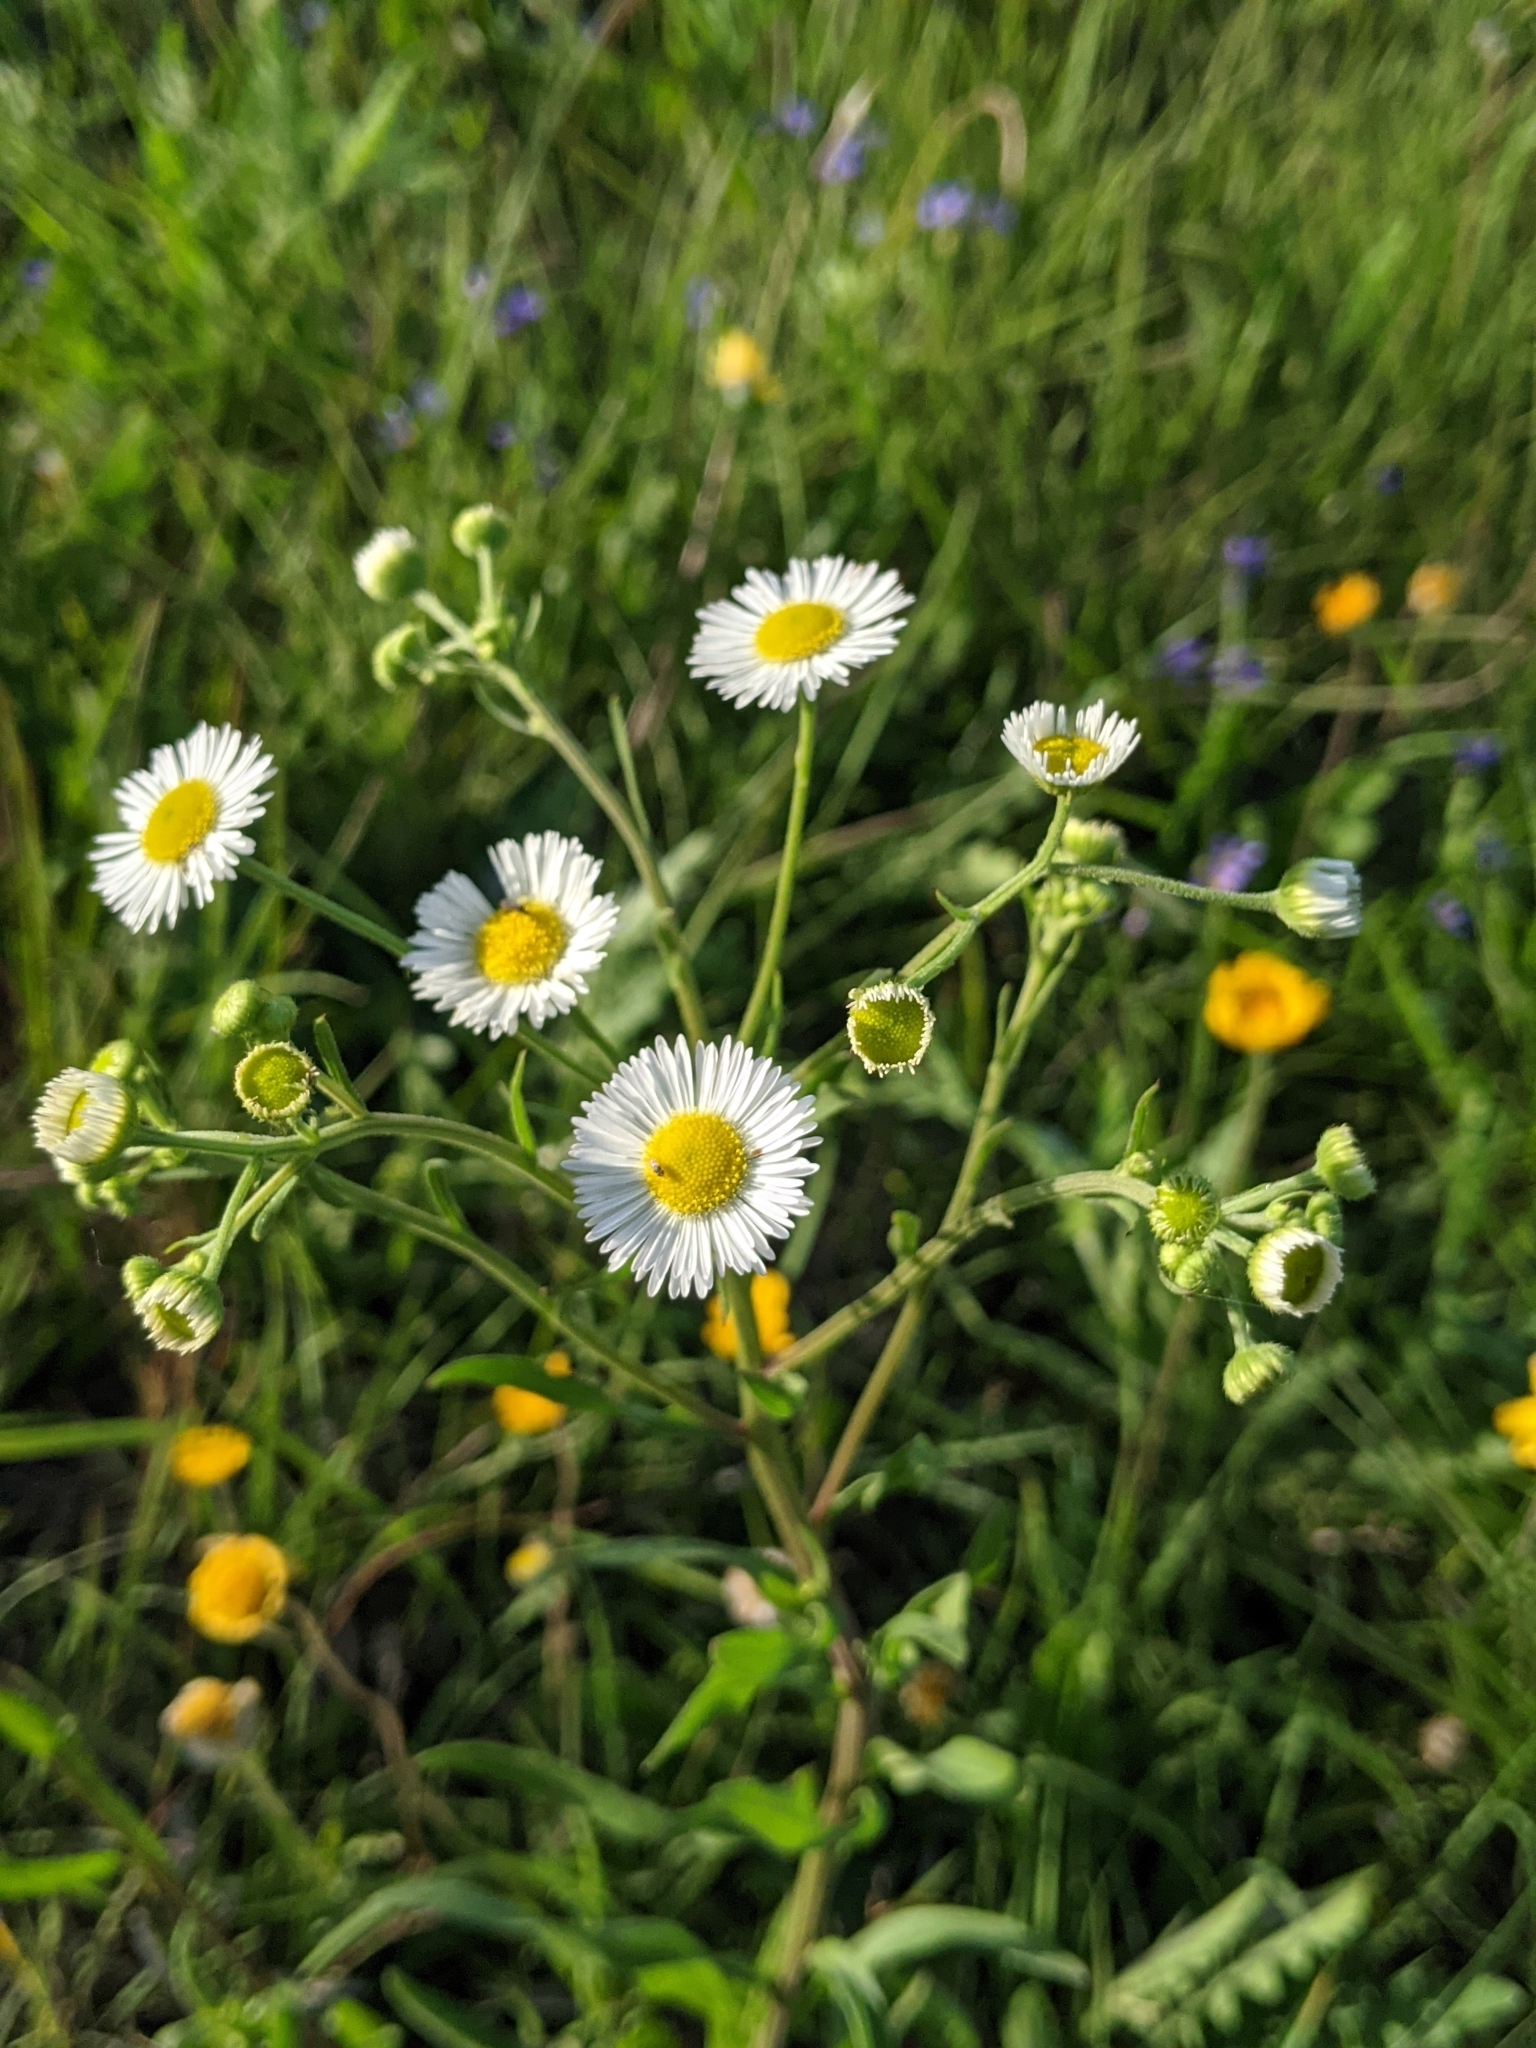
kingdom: Plantae
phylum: Tracheophyta
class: Magnoliopsida
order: Asterales
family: Asteraceae
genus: Erigeron
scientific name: Erigeron strigosus
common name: Common eastern fleabane
